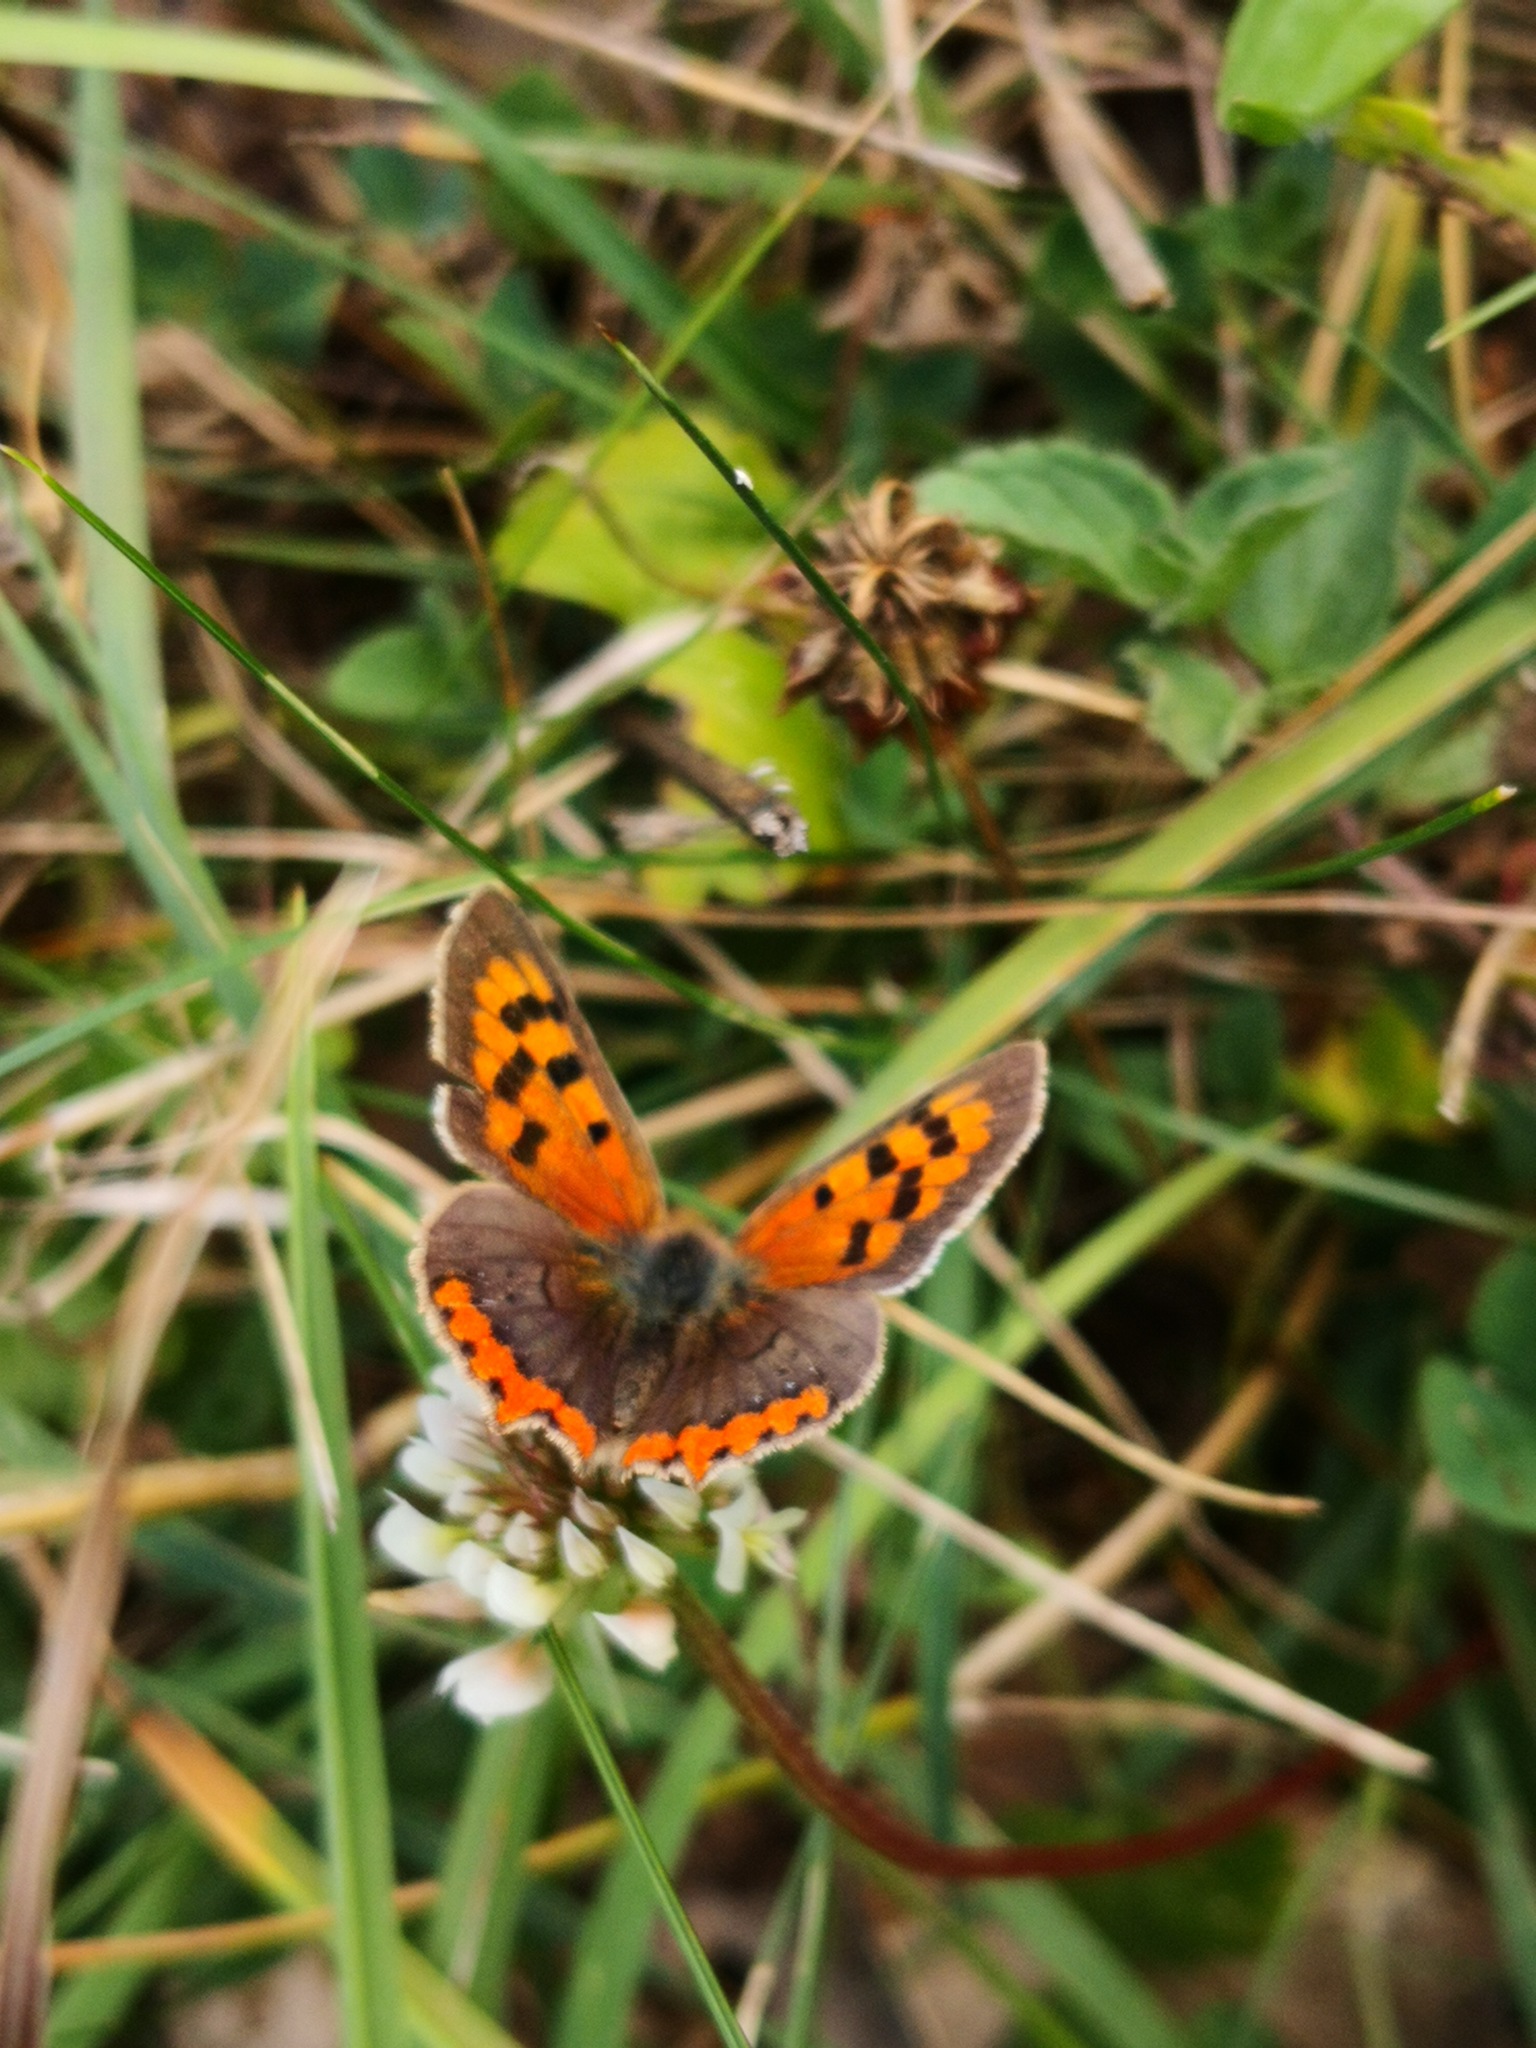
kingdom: Animalia
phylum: Arthropoda
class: Insecta
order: Lepidoptera
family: Lycaenidae
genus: Lycaena
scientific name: Lycaena phlaeas
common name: Small copper
